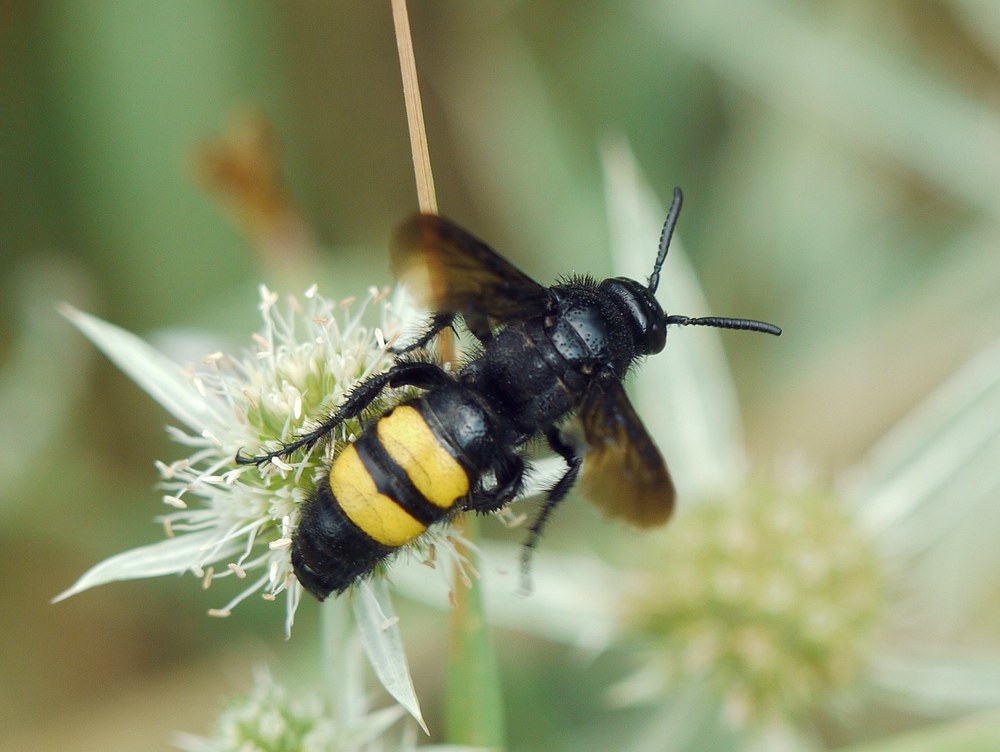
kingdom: Animalia
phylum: Arthropoda
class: Insecta
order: Hymenoptera
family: Scoliidae
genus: Scolia
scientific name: Scolia hirta
